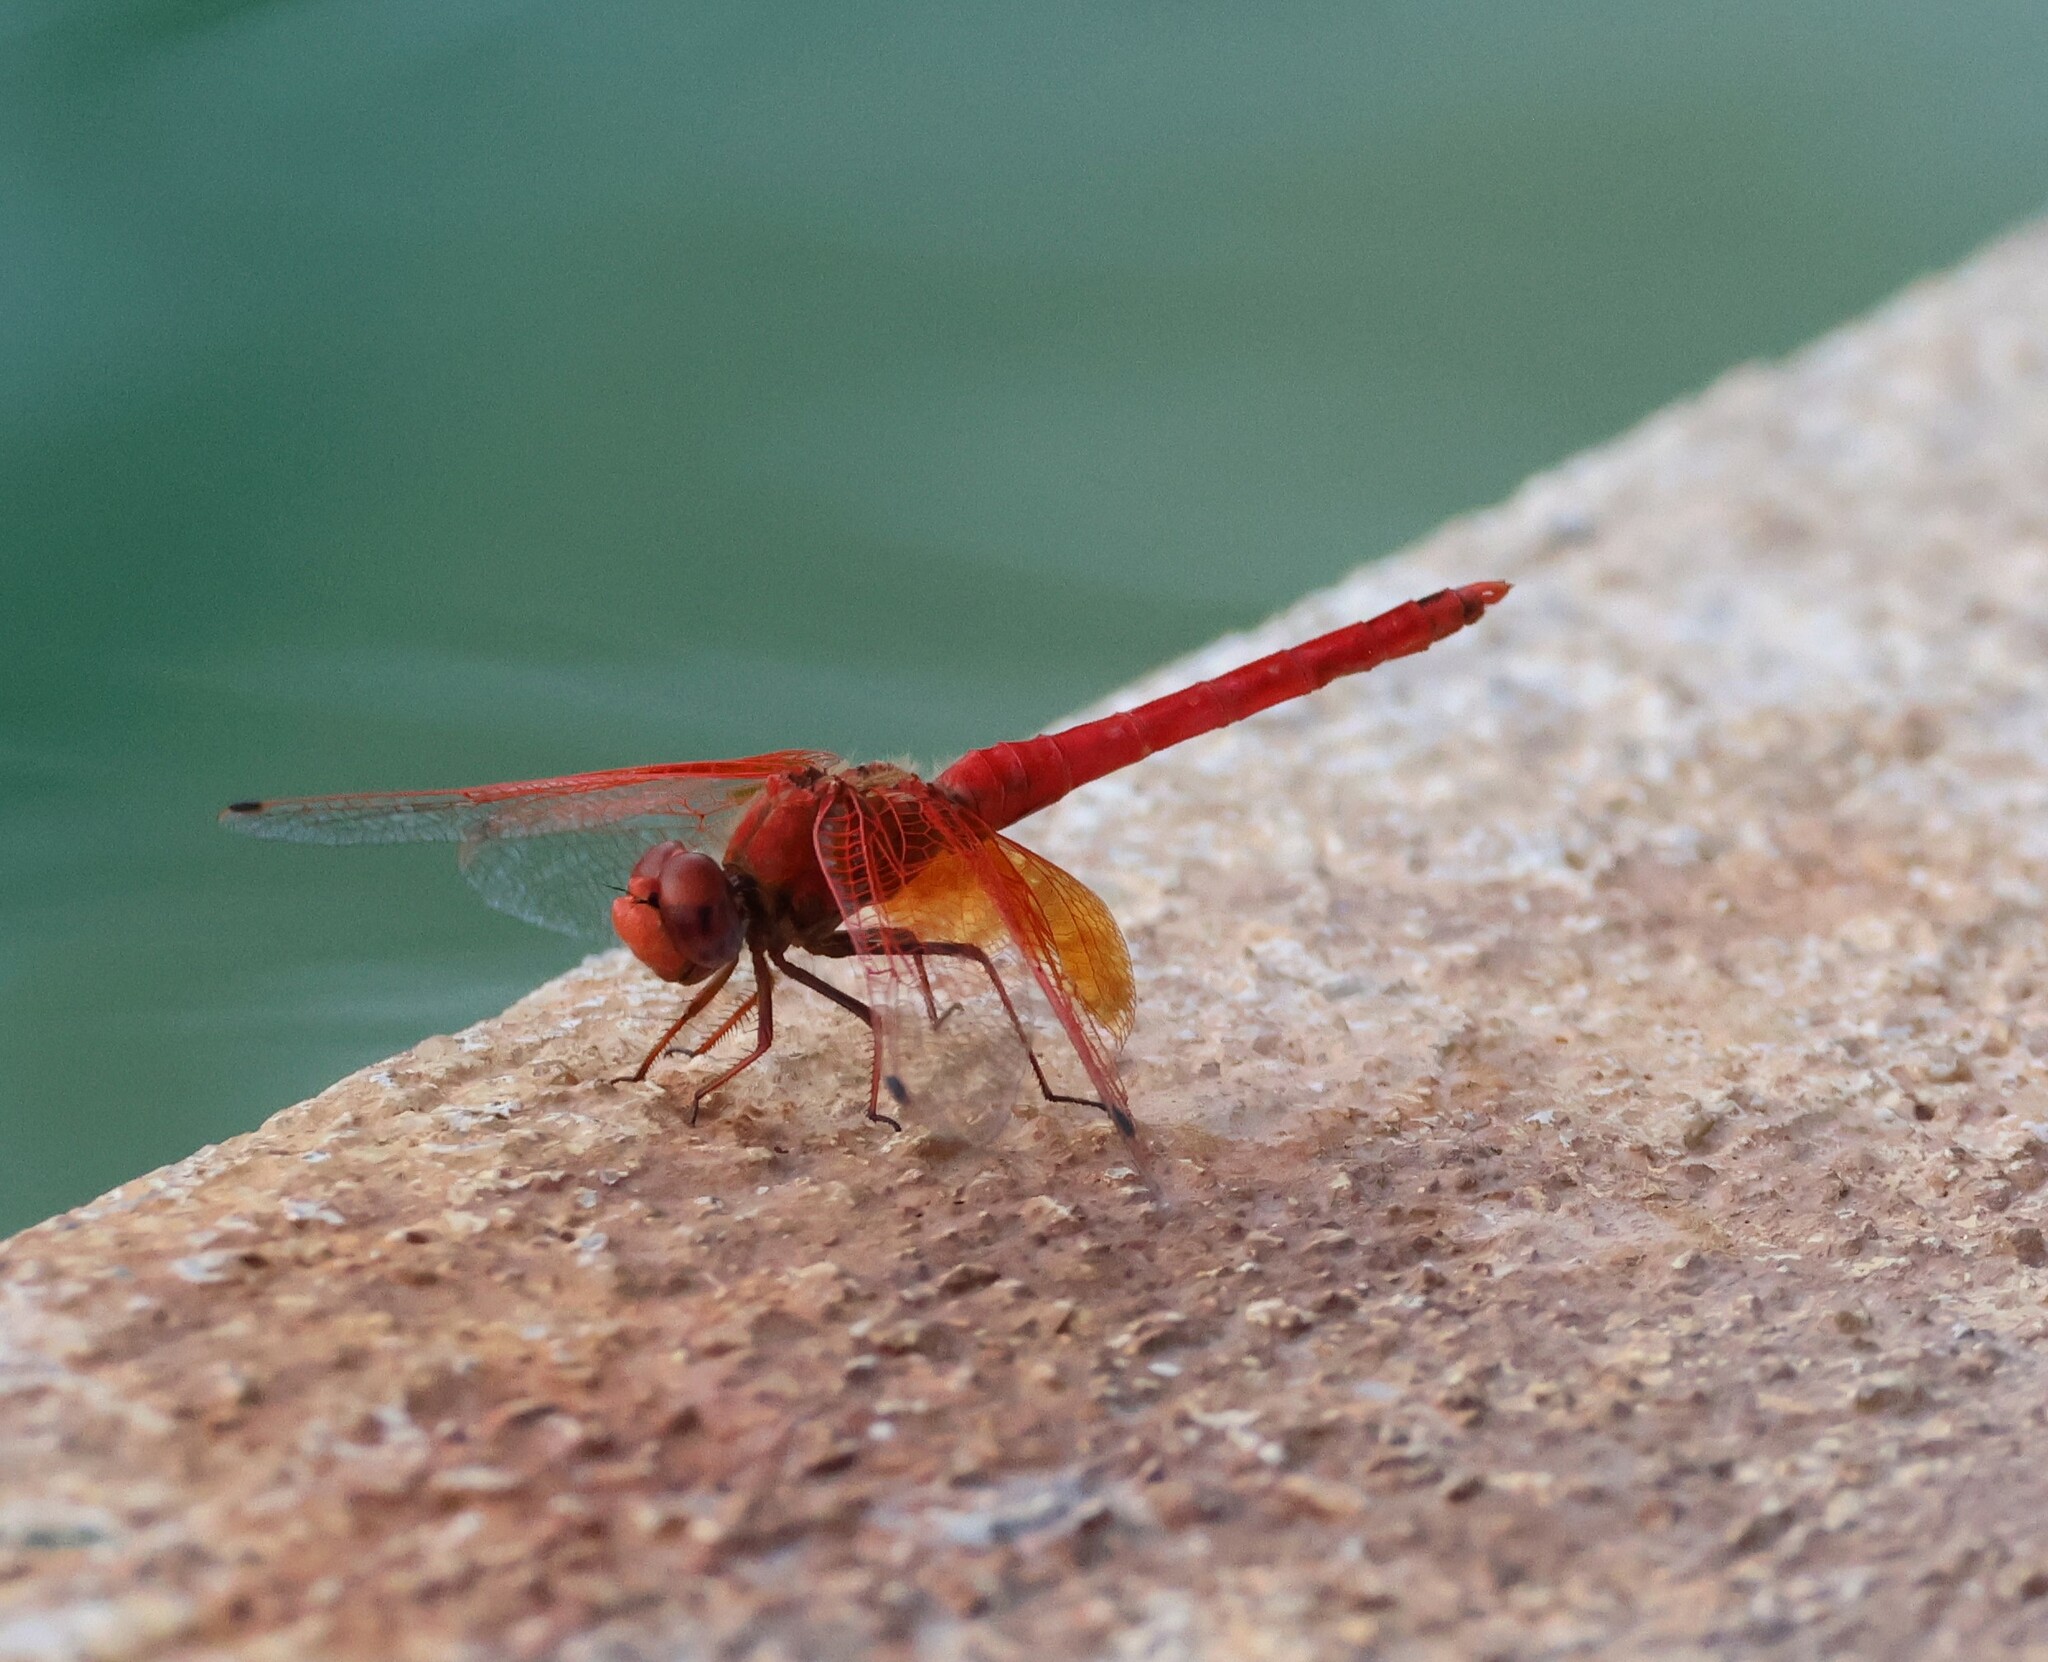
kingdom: Animalia
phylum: Arthropoda
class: Insecta
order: Odonata
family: Libellulidae
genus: Trithemis
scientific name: Trithemis kirbyi
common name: Kirby's dropwing
